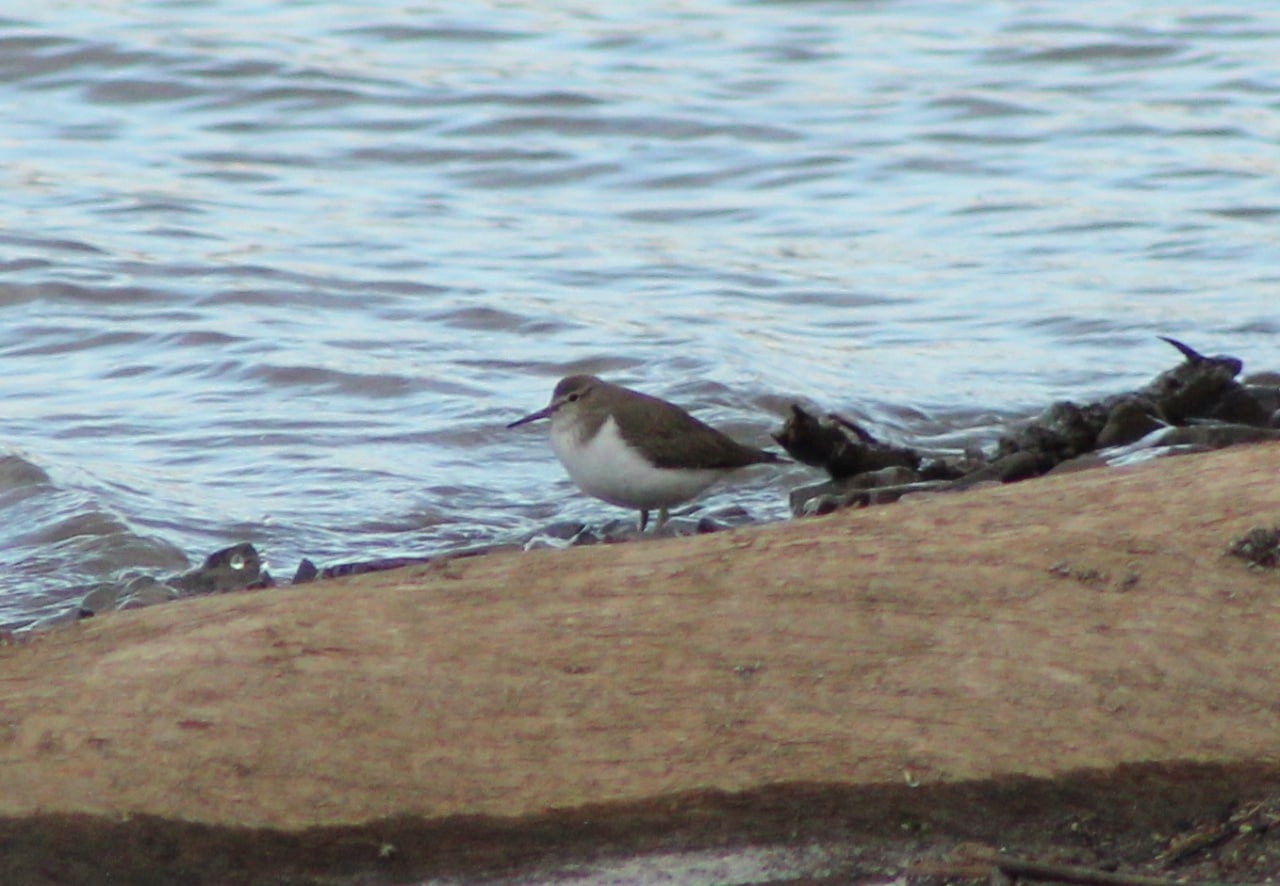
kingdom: Animalia
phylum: Chordata
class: Aves
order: Charadriiformes
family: Scolopacidae
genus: Actitis
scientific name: Actitis hypoleucos
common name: Common sandpiper
